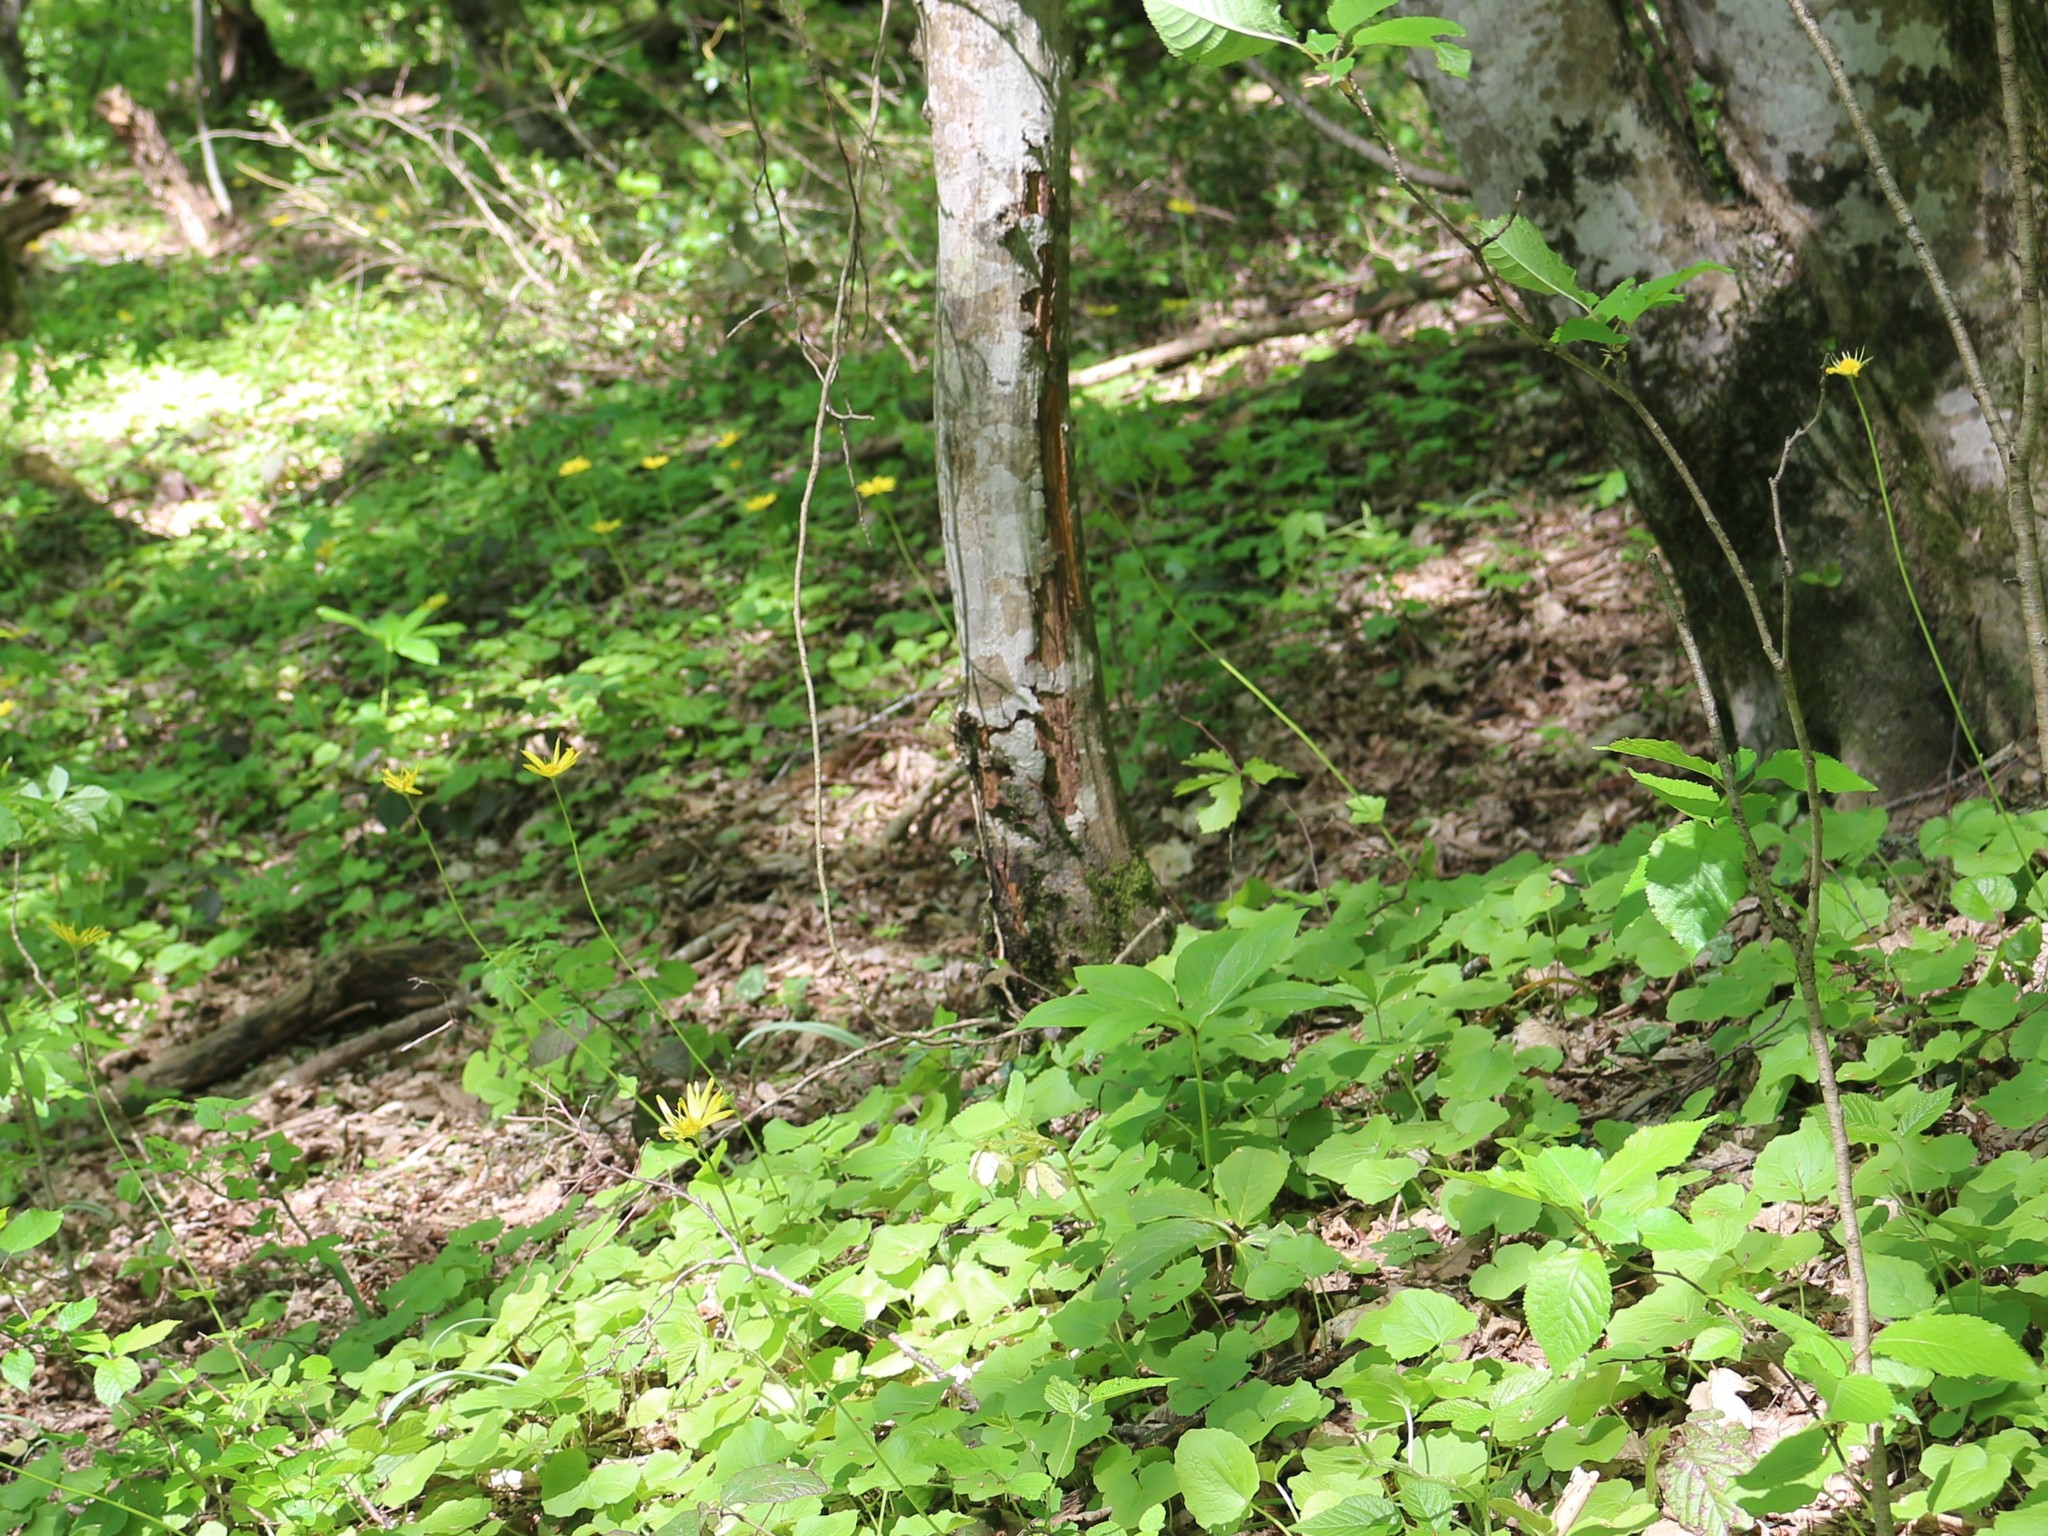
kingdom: Plantae
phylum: Tracheophyta
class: Magnoliopsida
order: Asterales
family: Asteraceae
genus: Doronicum
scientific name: Doronicum
